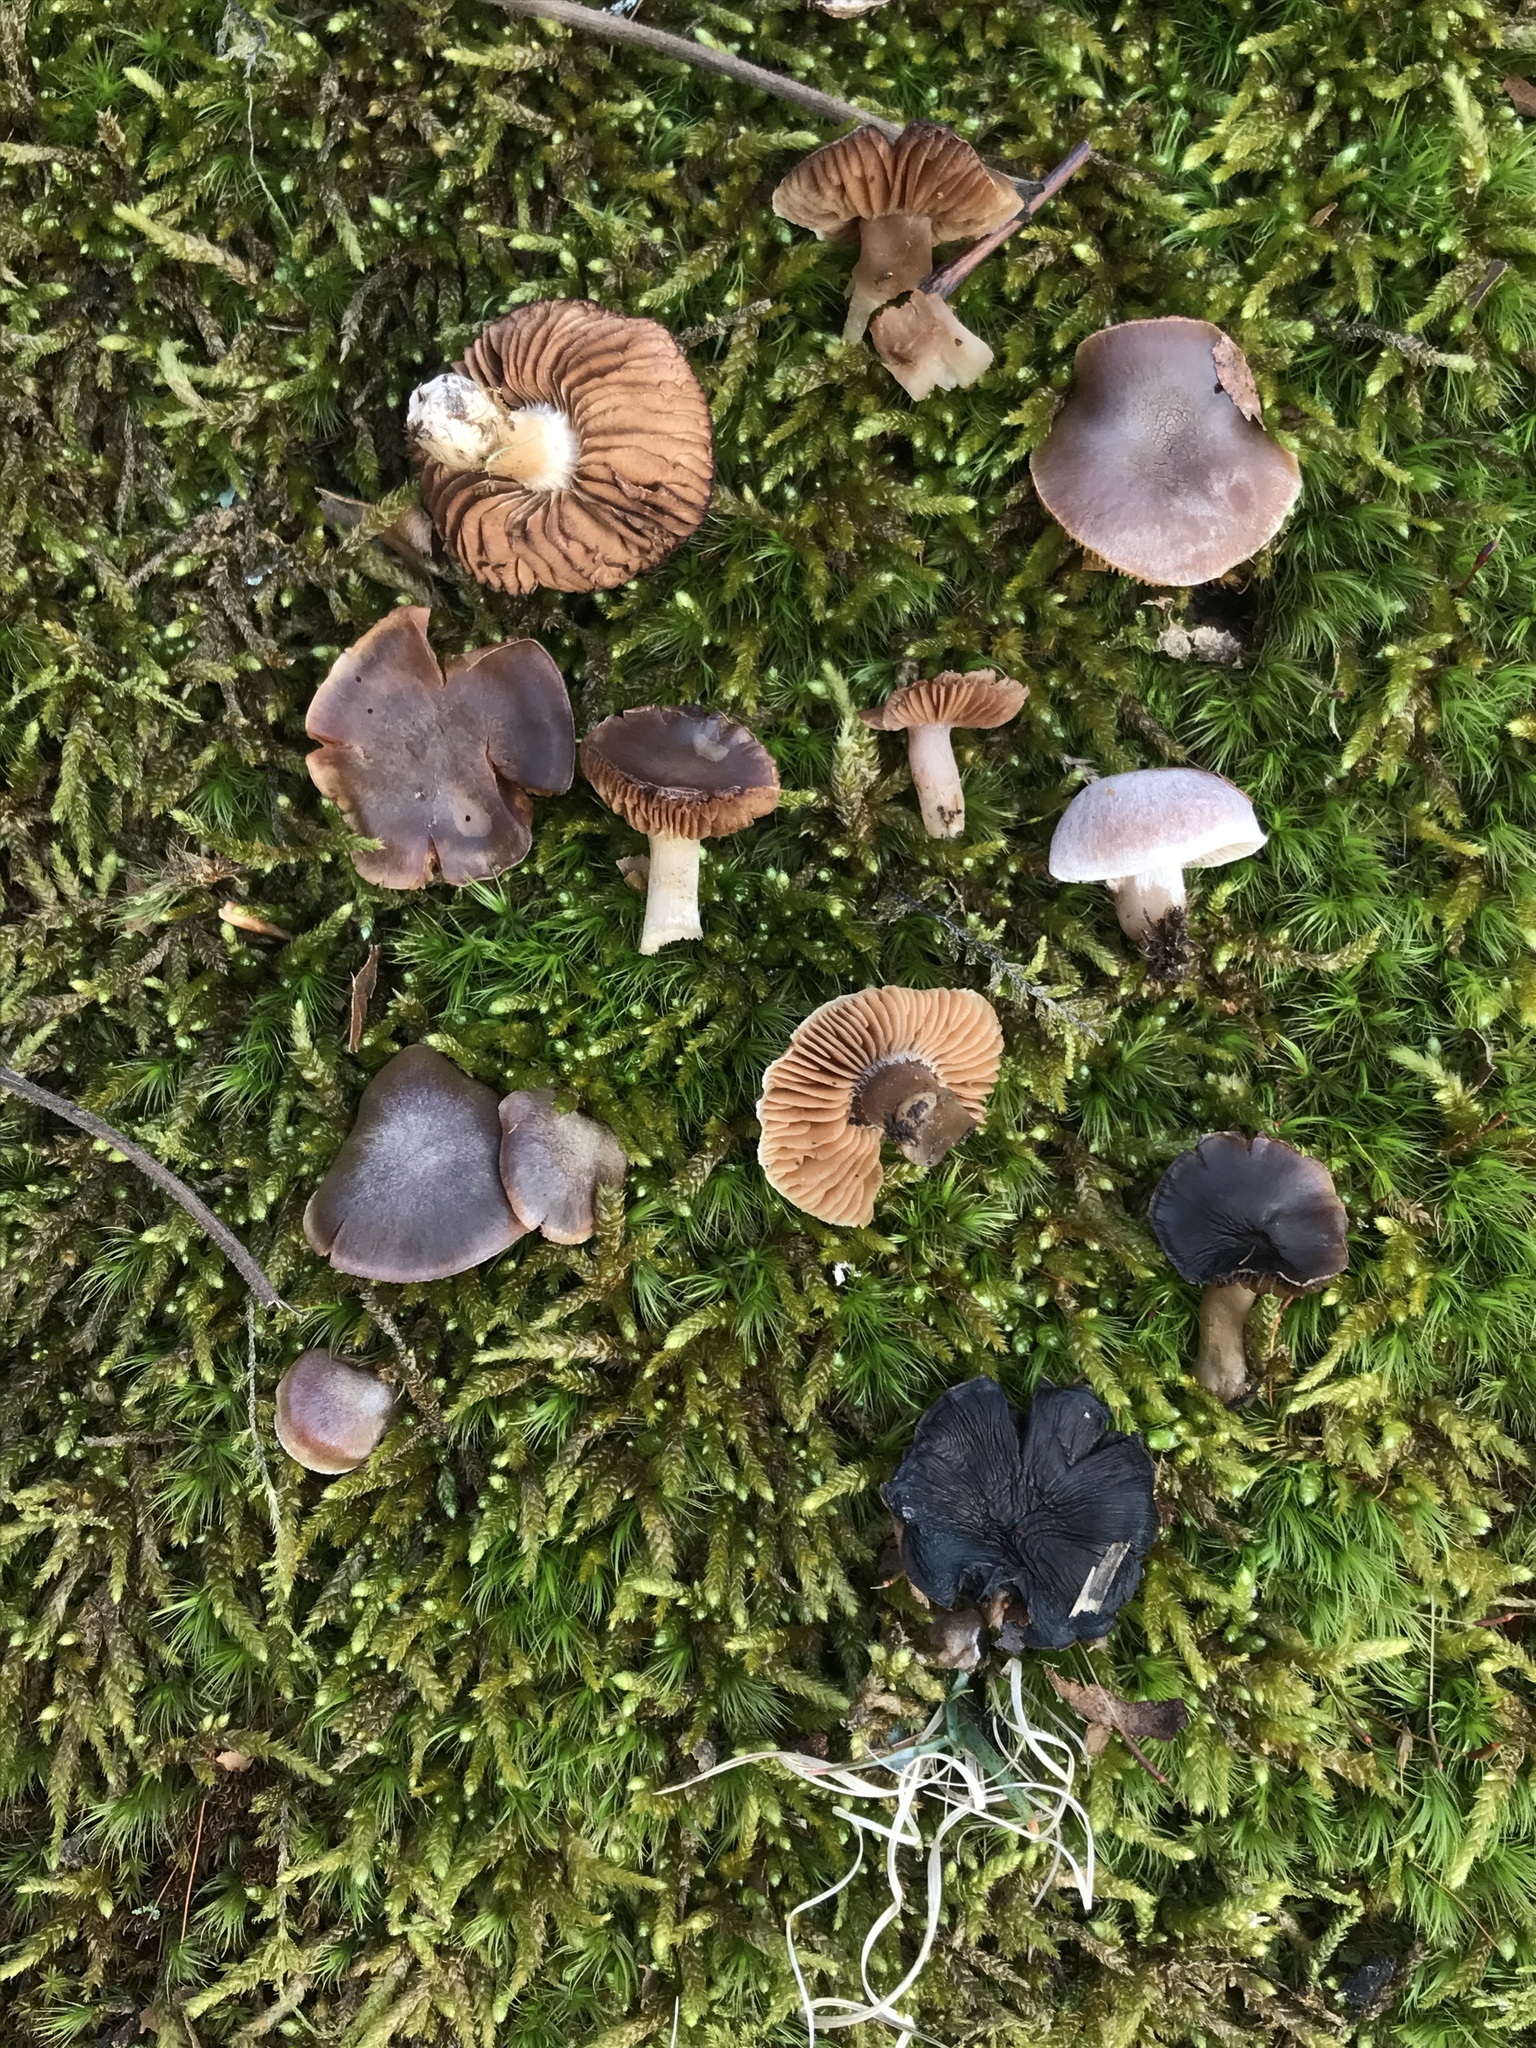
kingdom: Fungi
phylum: Basidiomycota
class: Agaricomycetes
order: Agaricales
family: Cortinariaceae
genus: Cortinarius
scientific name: Cortinarius leiocastaneus
